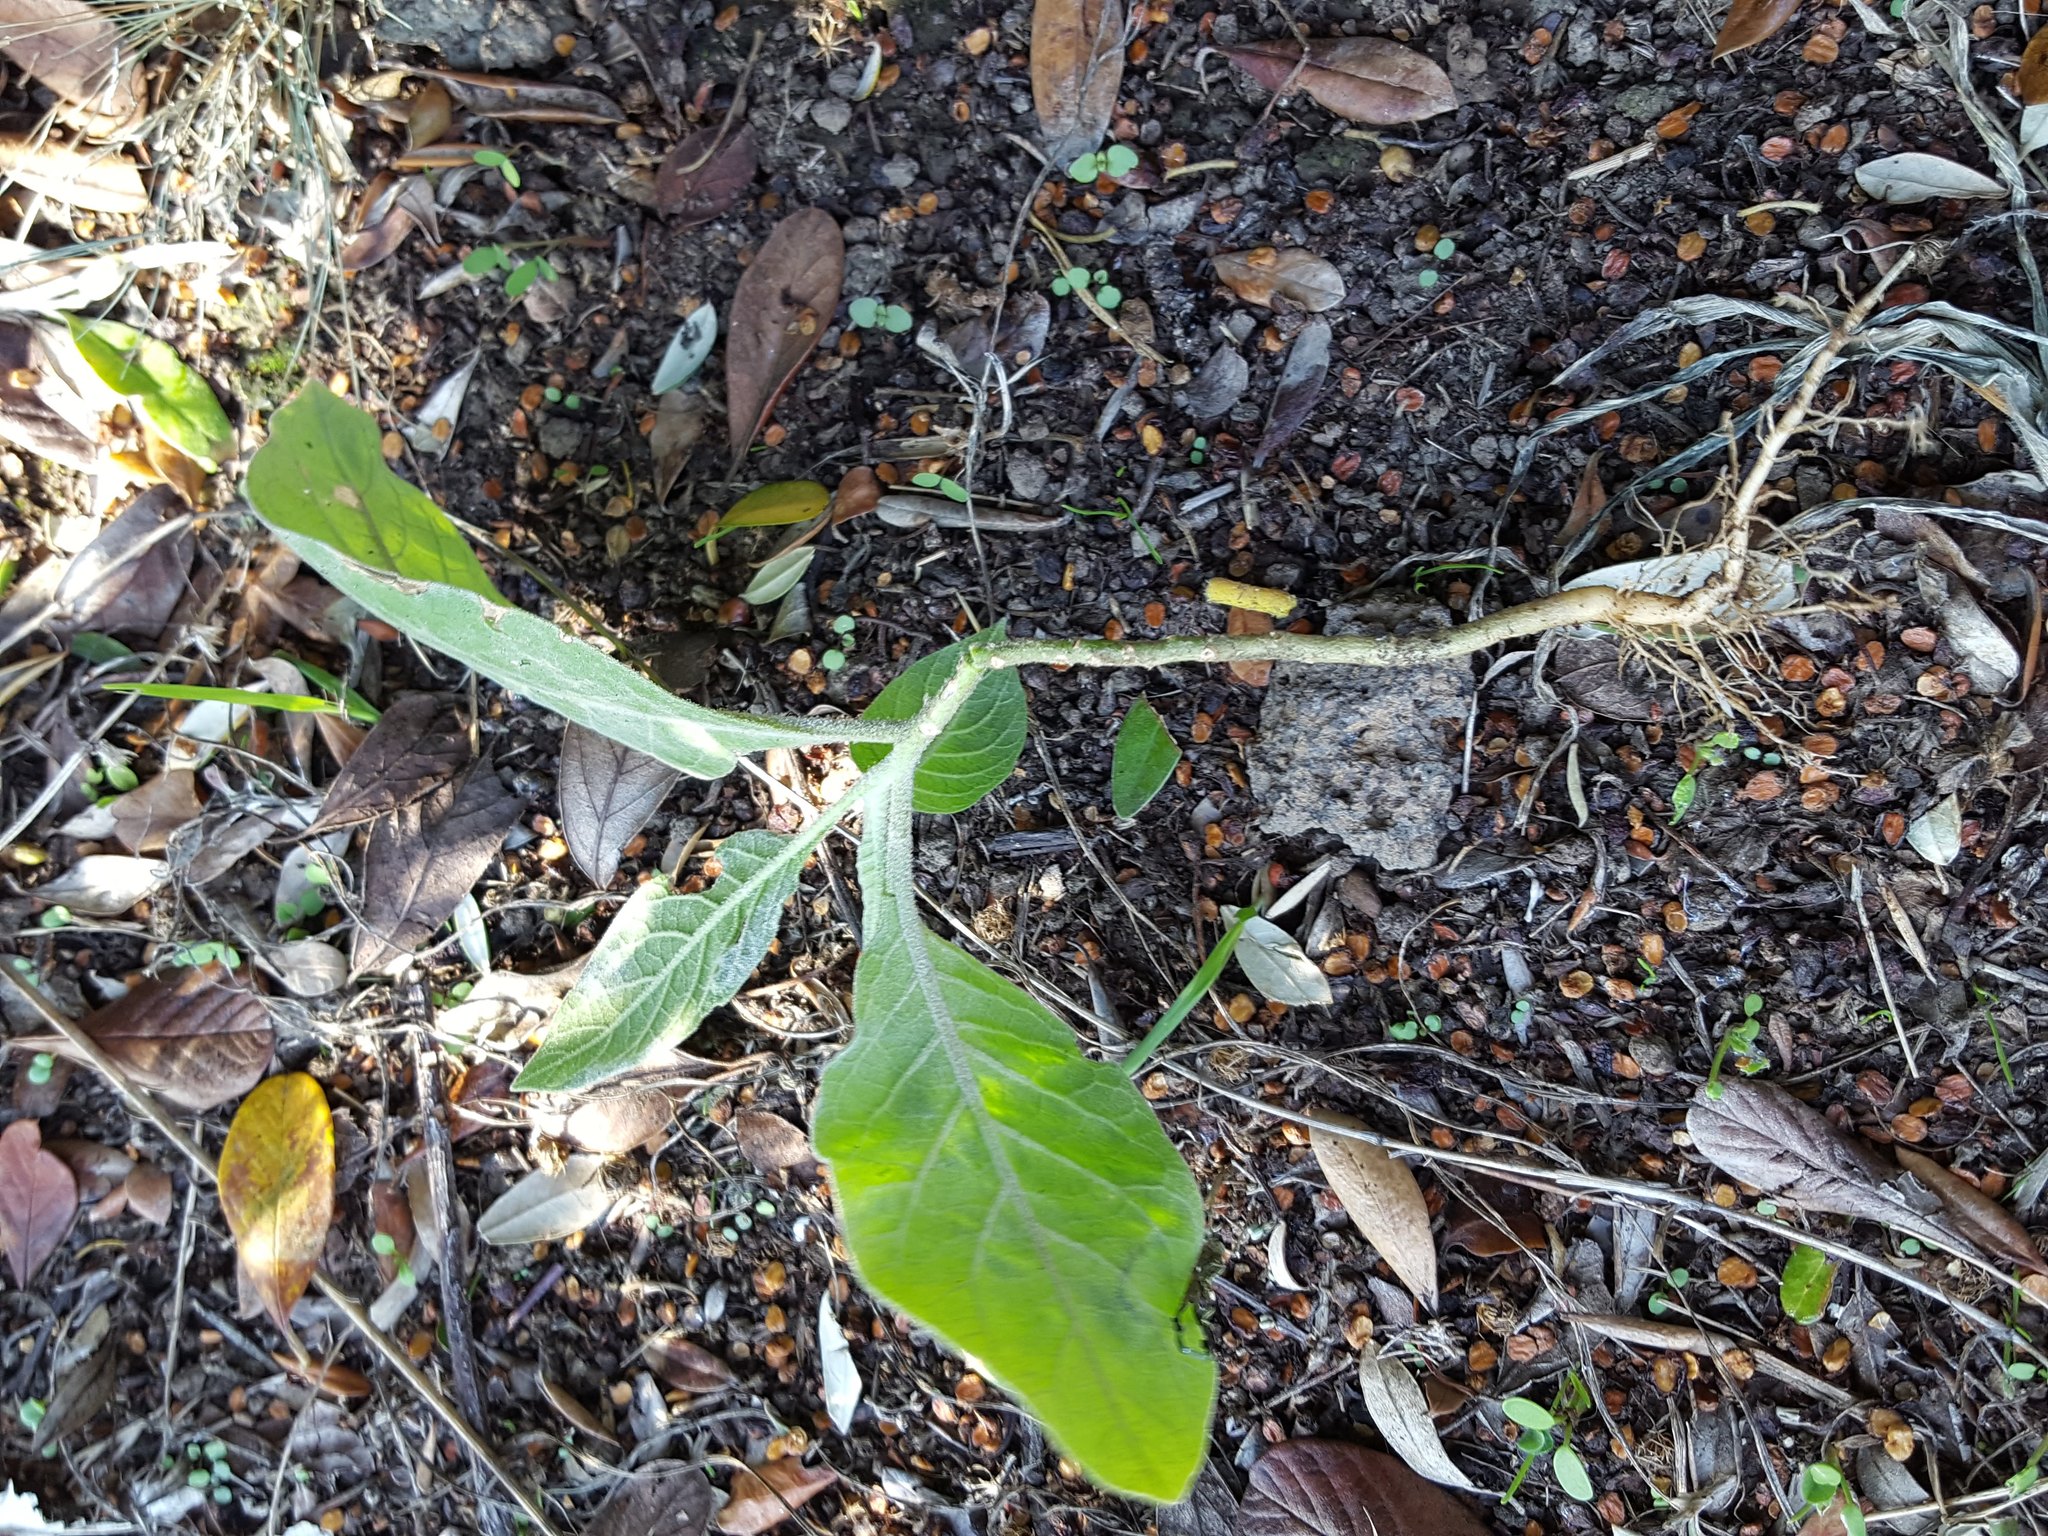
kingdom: Plantae
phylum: Tracheophyta
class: Magnoliopsida
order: Solanales
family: Solanaceae
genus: Solanum
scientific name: Solanum mauritianum
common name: Earleaf nightshade
